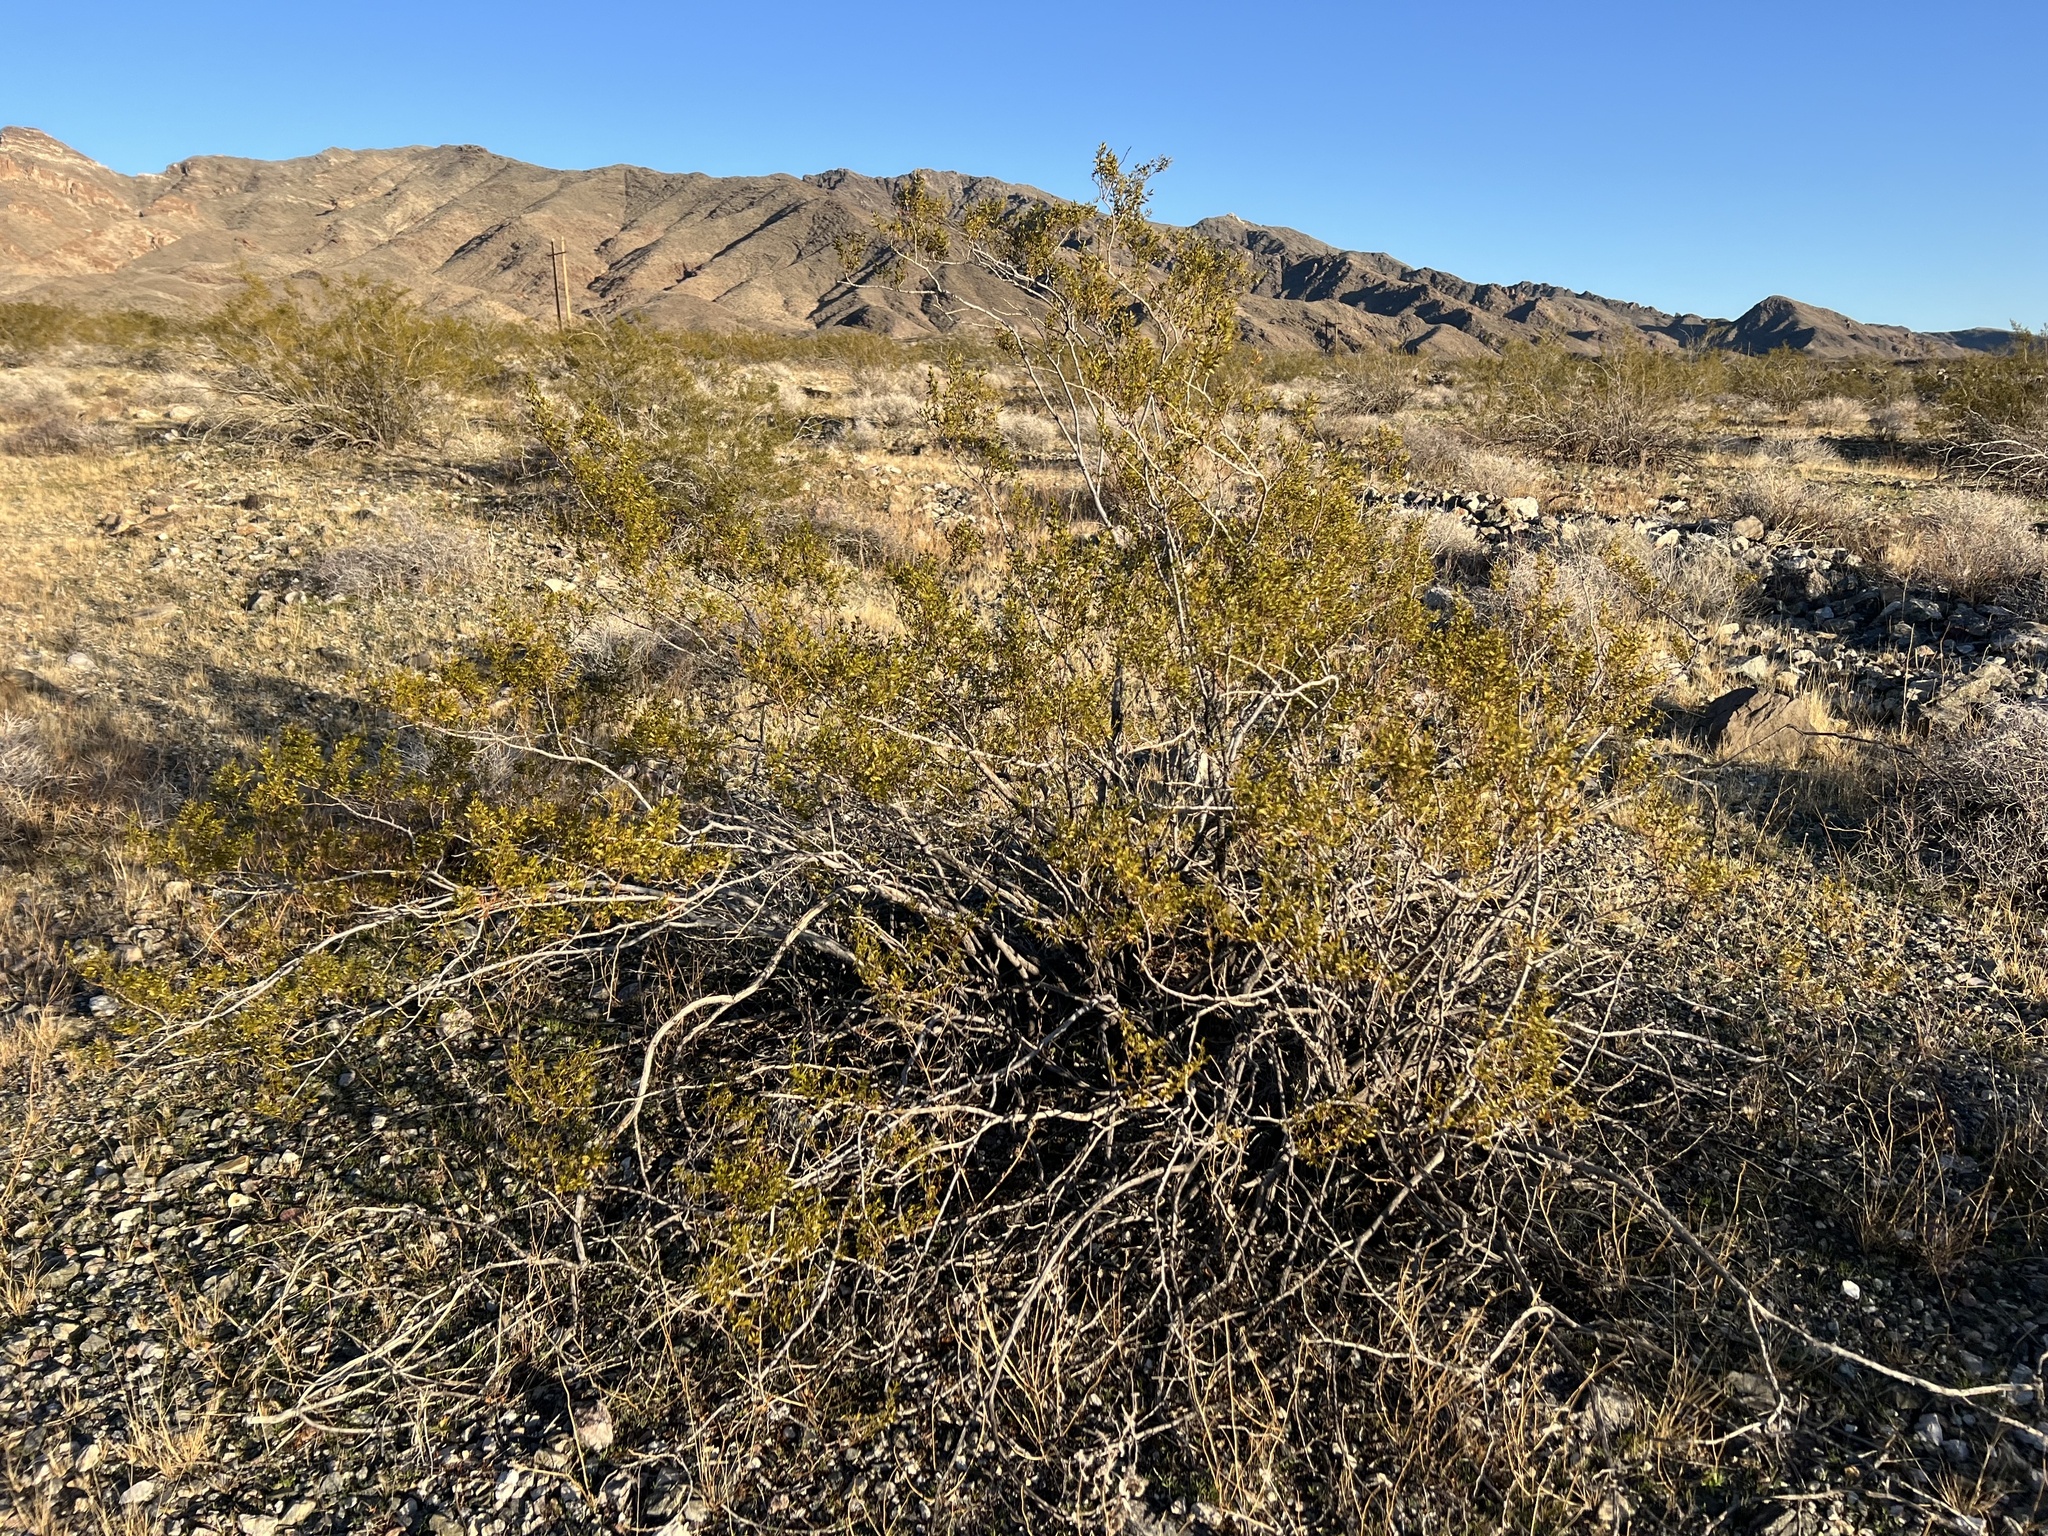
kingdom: Plantae
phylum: Tracheophyta
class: Magnoliopsida
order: Zygophyllales
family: Zygophyllaceae
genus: Larrea
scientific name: Larrea tridentata
